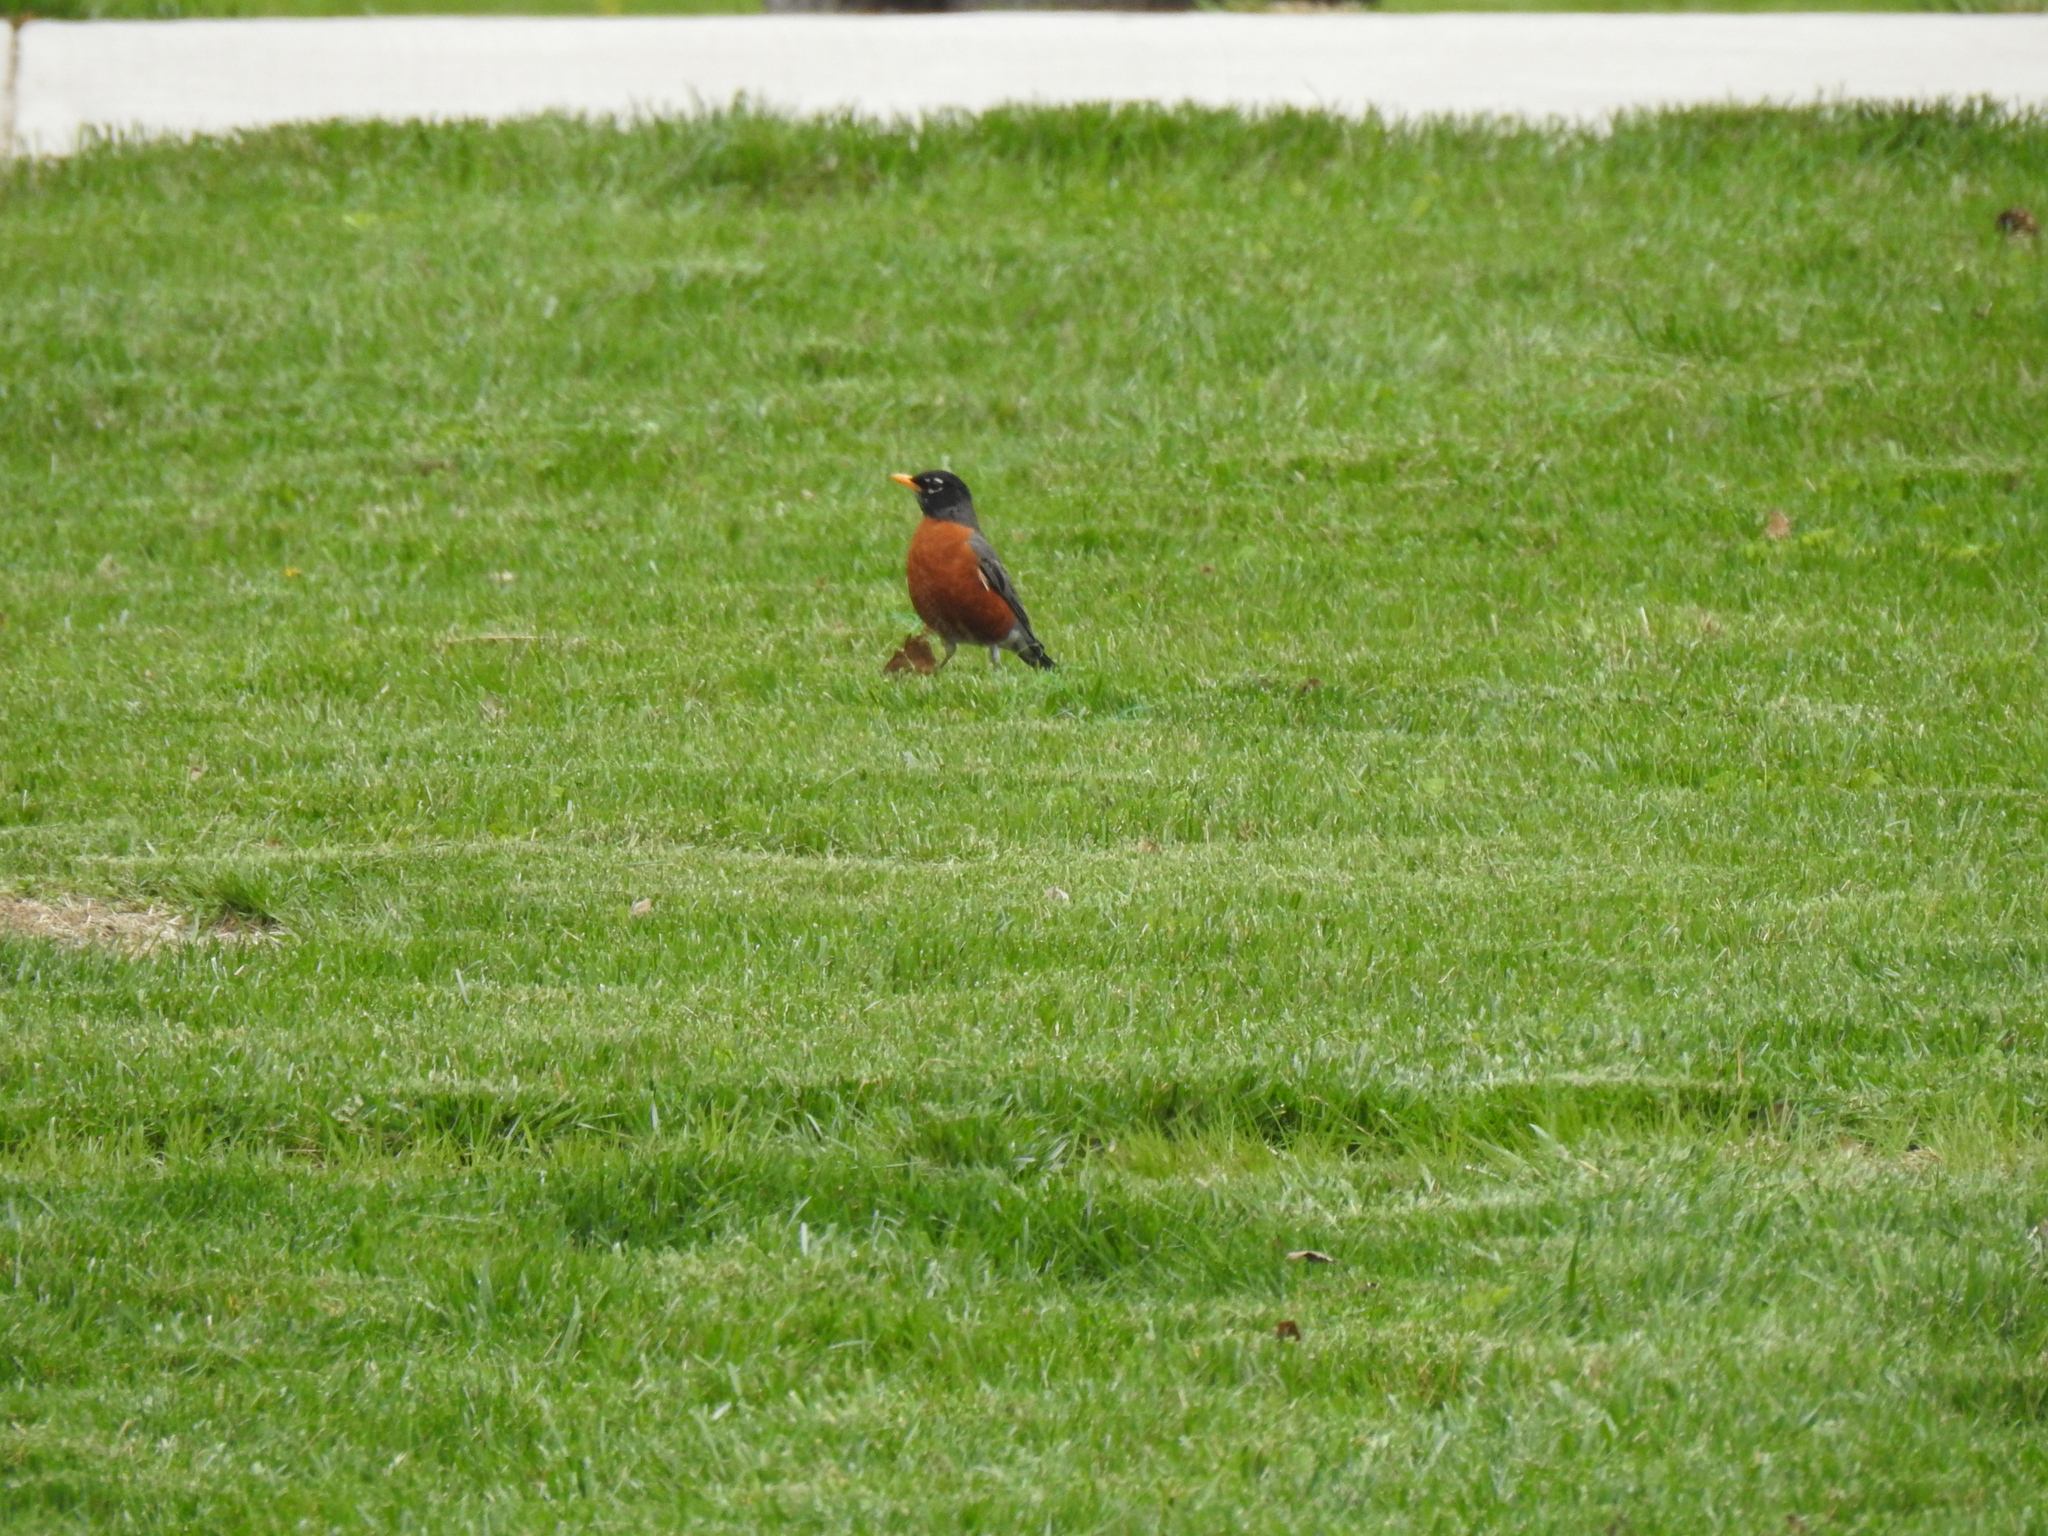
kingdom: Animalia
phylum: Chordata
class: Aves
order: Passeriformes
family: Turdidae
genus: Turdus
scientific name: Turdus migratorius
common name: American robin
